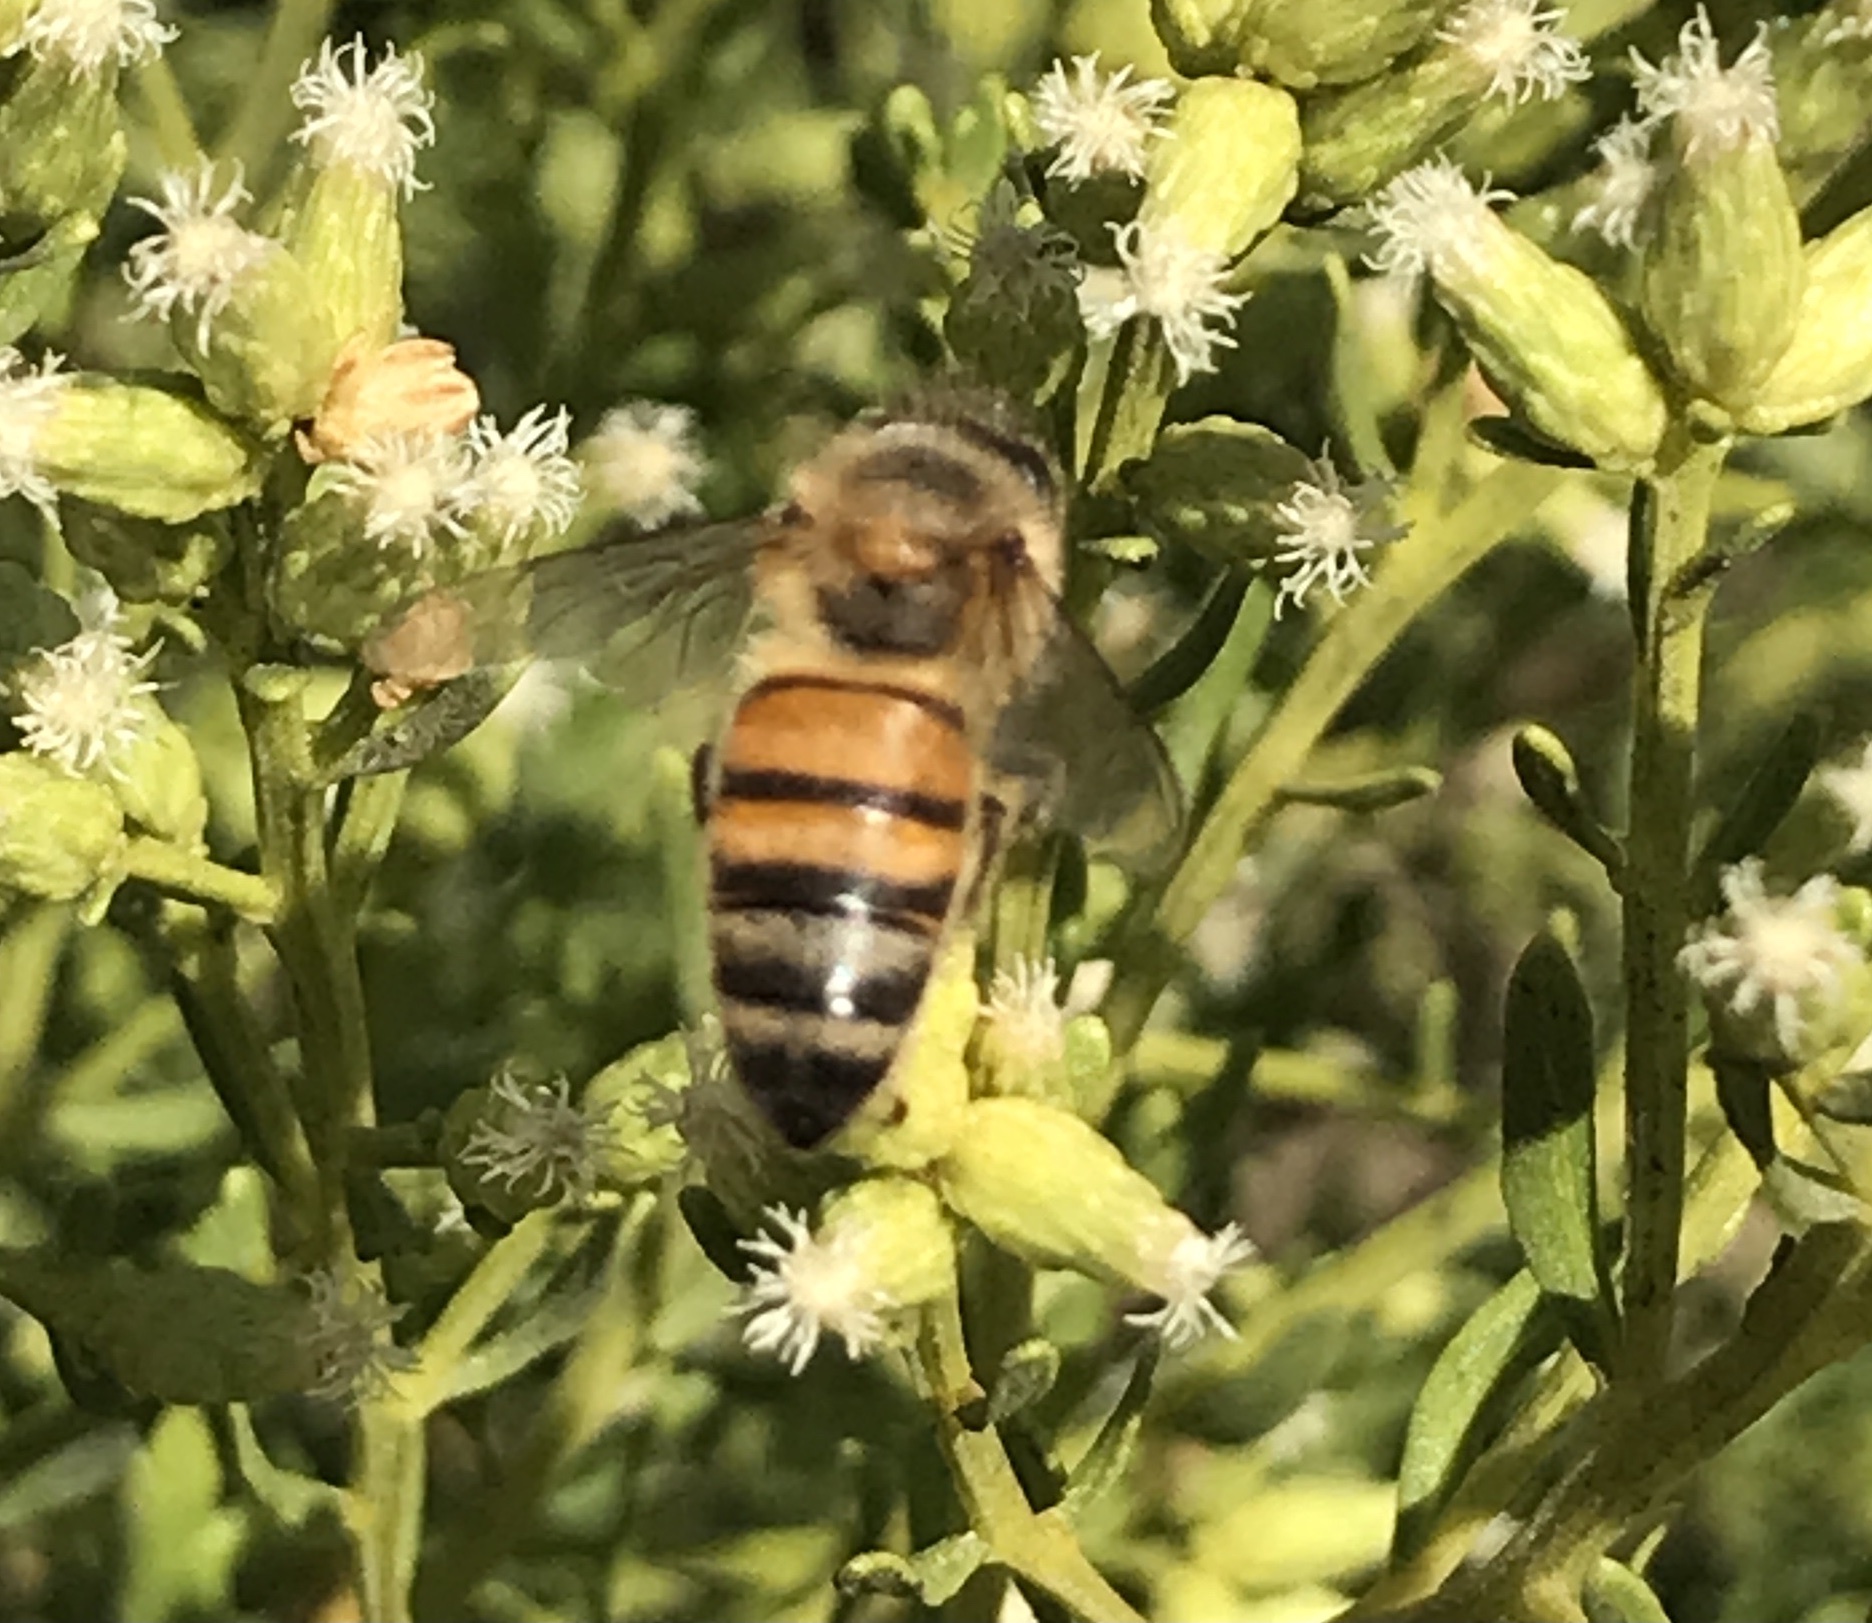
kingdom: Animalia
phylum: Arthropoda
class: Insecta
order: Hymenoptera
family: Apidae
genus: Apis
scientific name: Apis mellifera
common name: Honey bee
